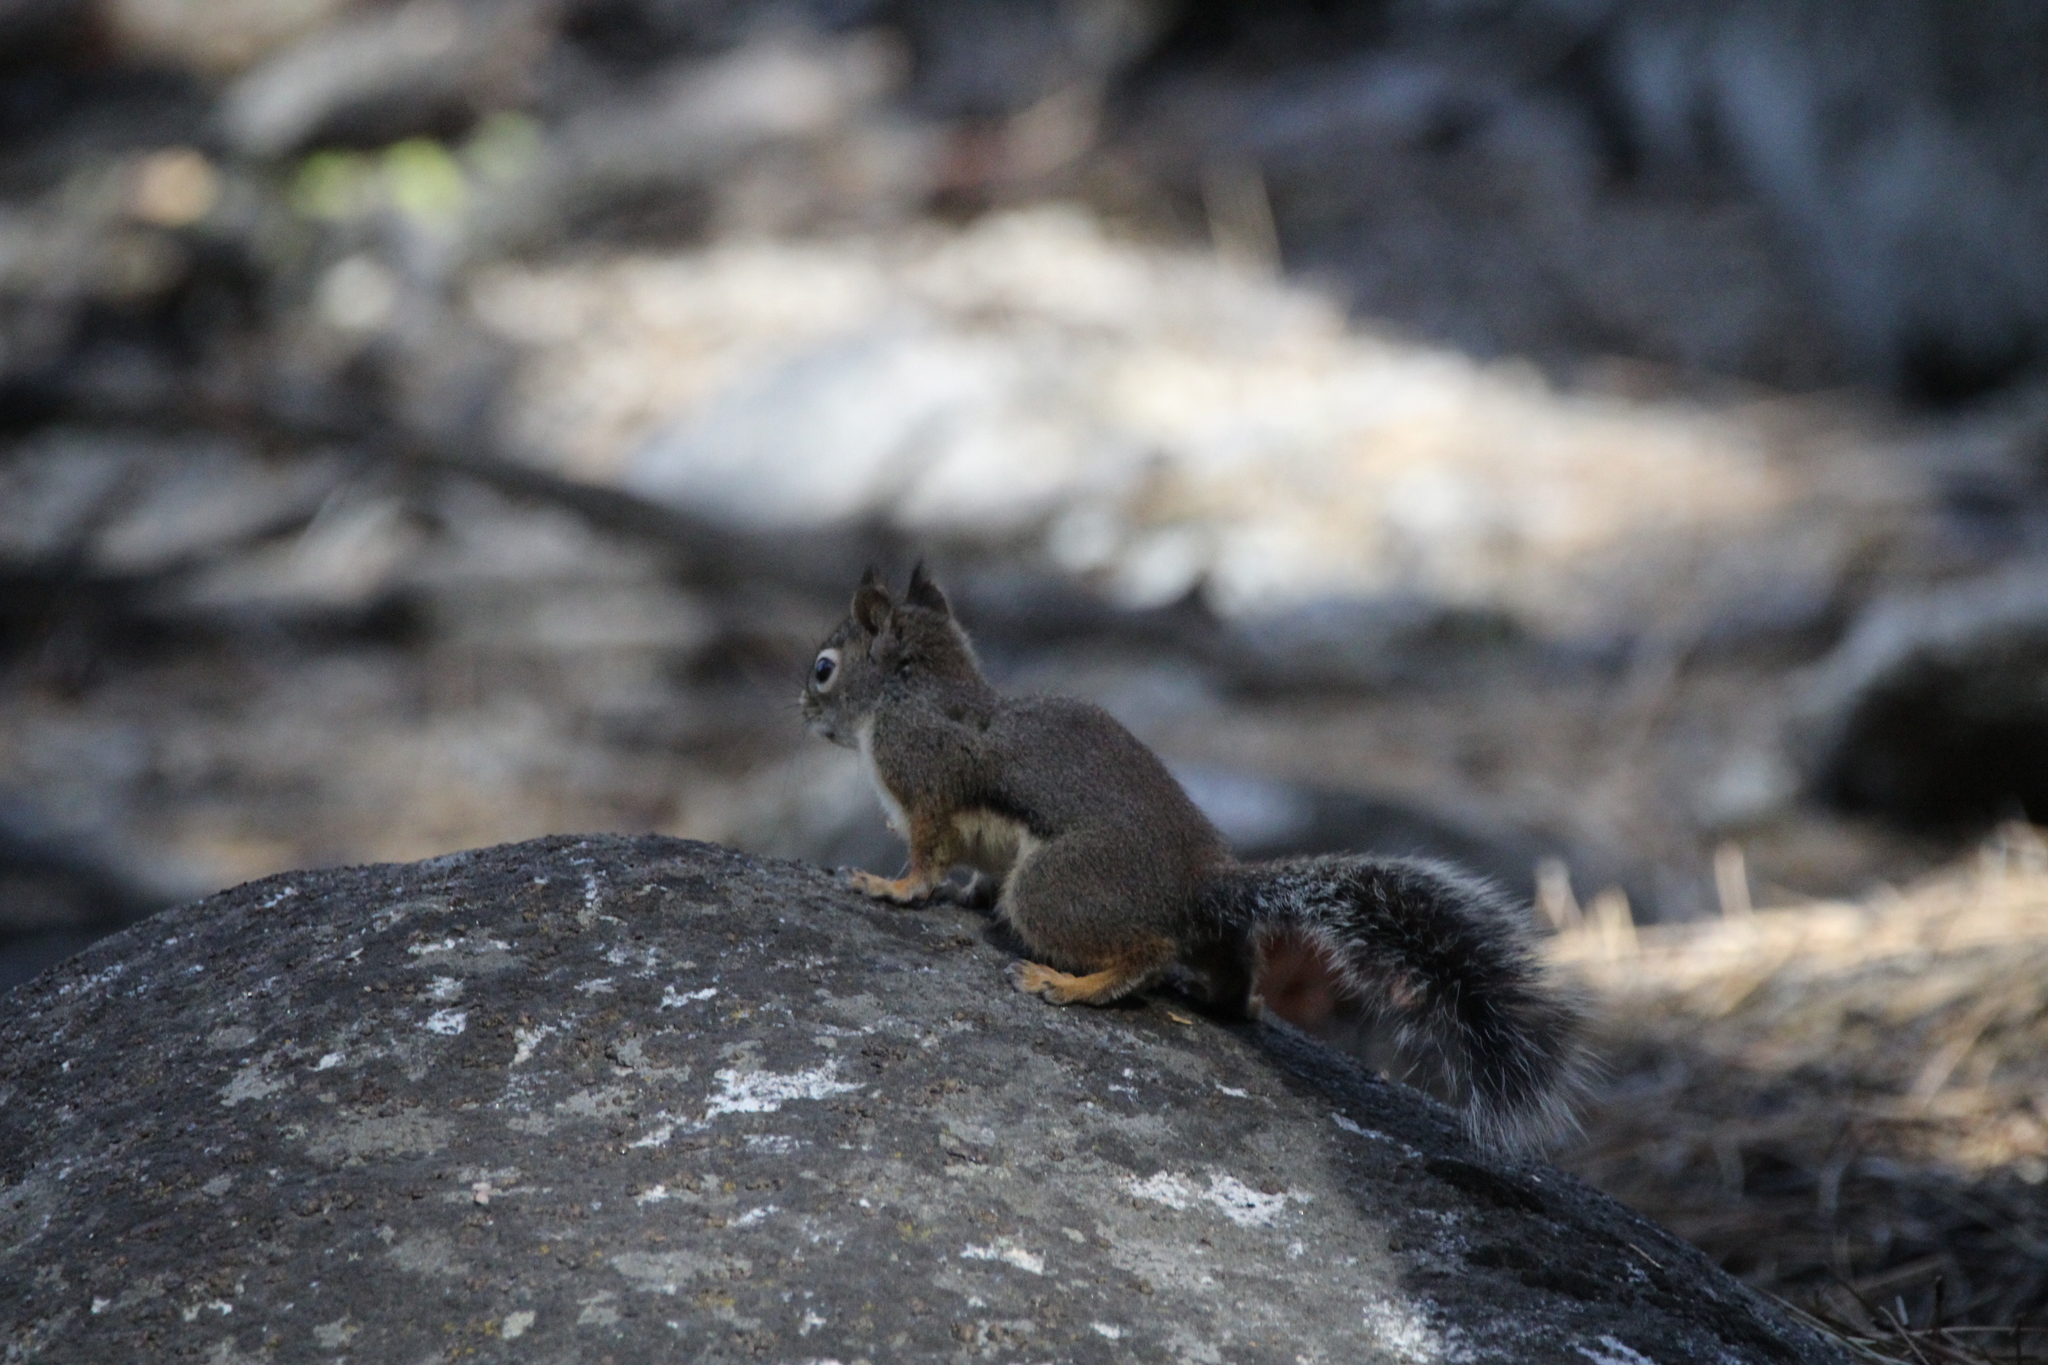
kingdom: Animalia
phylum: Chordata
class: Mammalia
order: Rodentia
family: Sciuridae
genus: Tamiasciurus
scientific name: Tamiasciurus douglasii
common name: Douglas's squirrel
